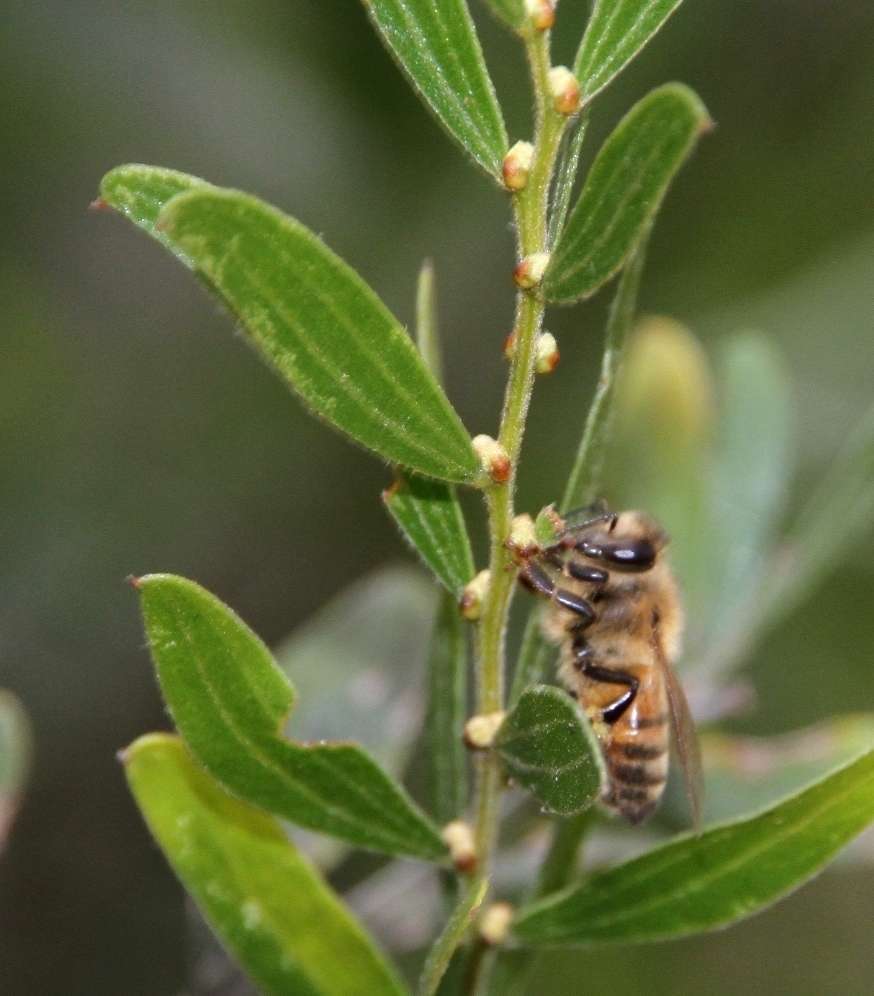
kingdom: Animalia
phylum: Arthropoda
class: Insecta
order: Hymenoptera
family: Apidae
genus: Apis
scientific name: Apis mellifera
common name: Honey bee
